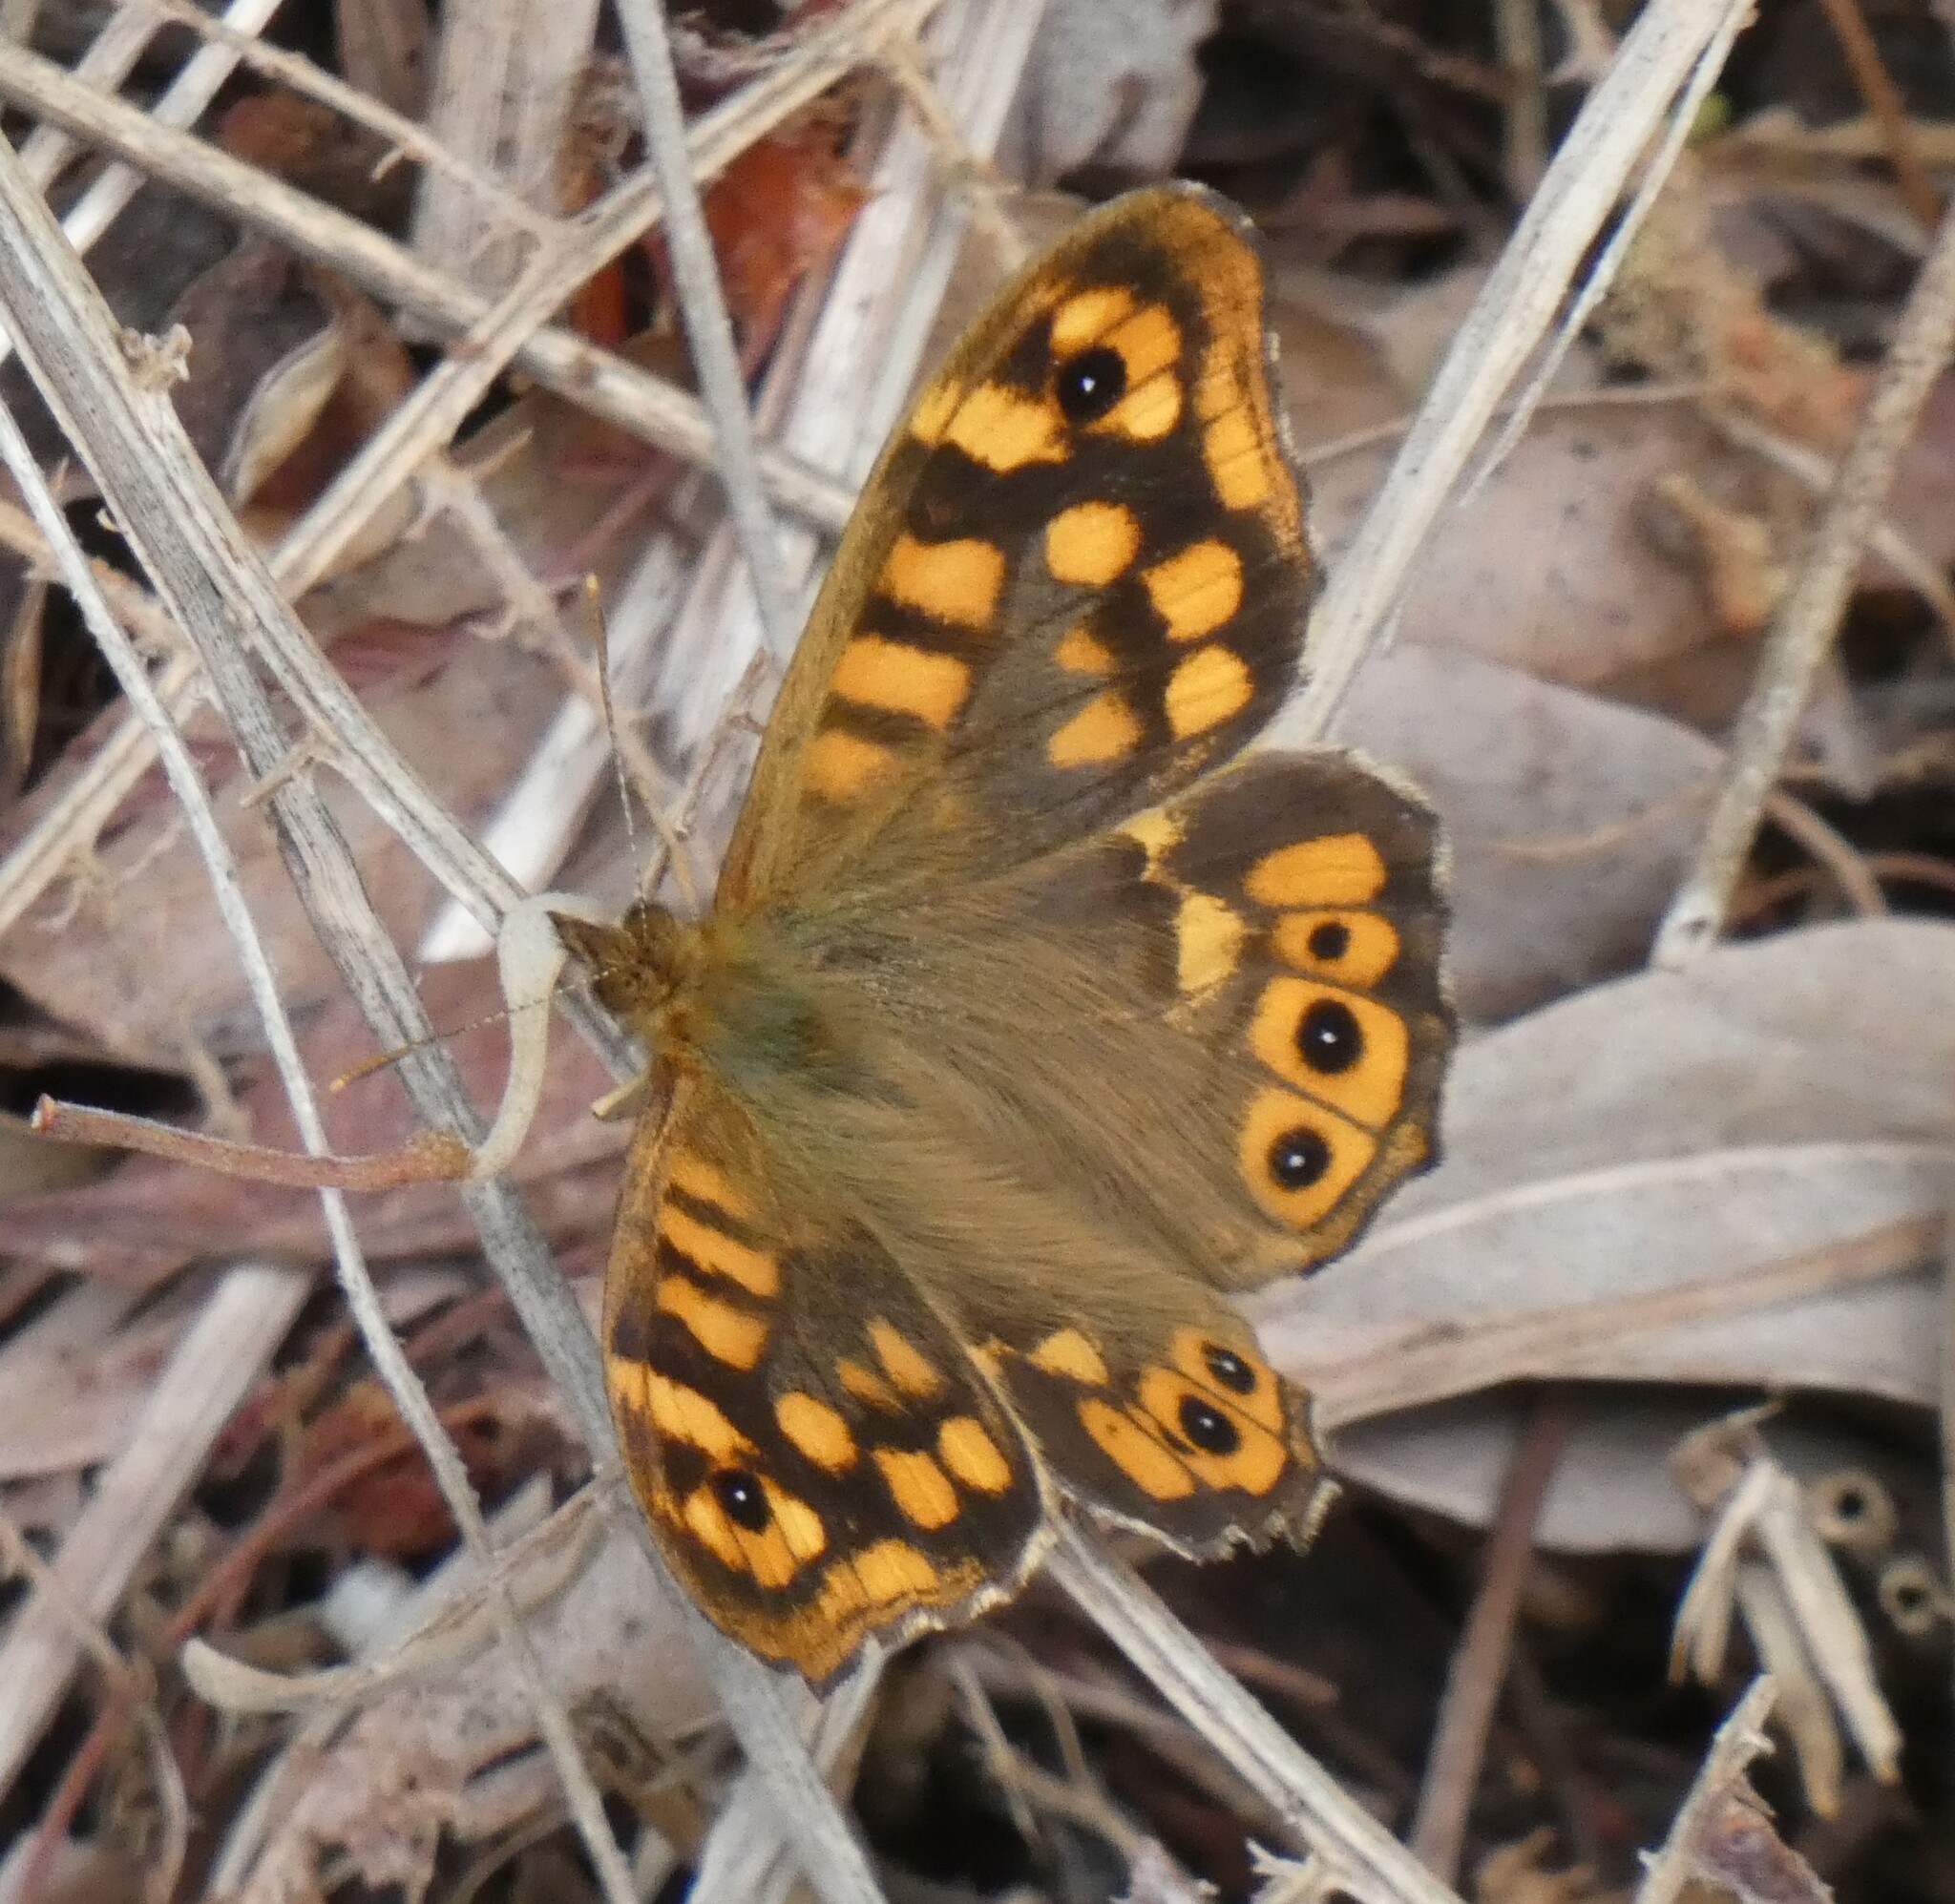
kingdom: Animalia
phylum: Arthropoda
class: Insecta
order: Lepidoptera
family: Nymphalidae
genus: Pararge
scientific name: Pararge aegeria
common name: Speckled wood
